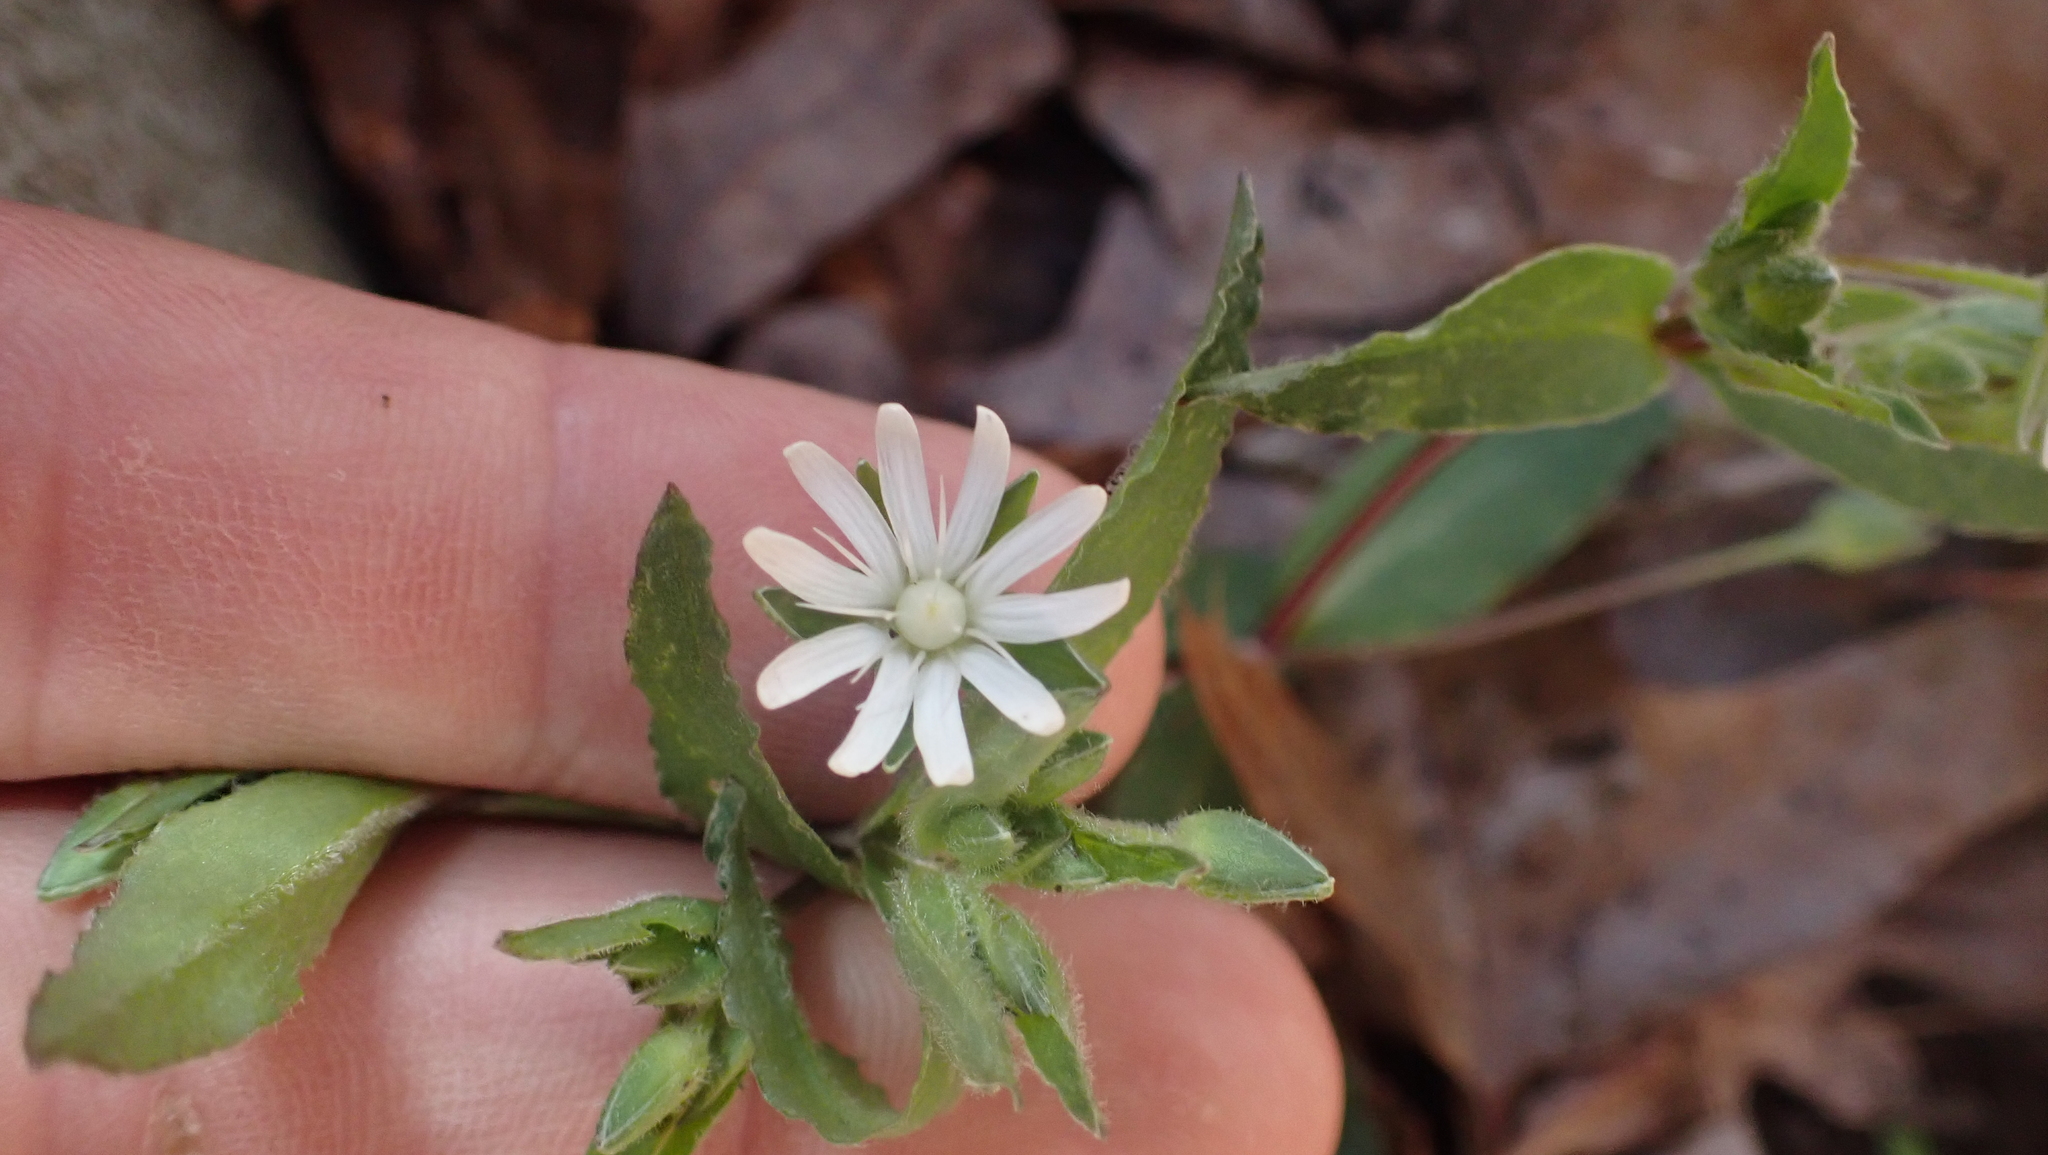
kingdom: Plantae
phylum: Tracheophyta
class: Magnoliopsida
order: Caryophyllales
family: Caryophyllaceae
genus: Stellaria
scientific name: Stellaria pubera
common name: Star chickweed
